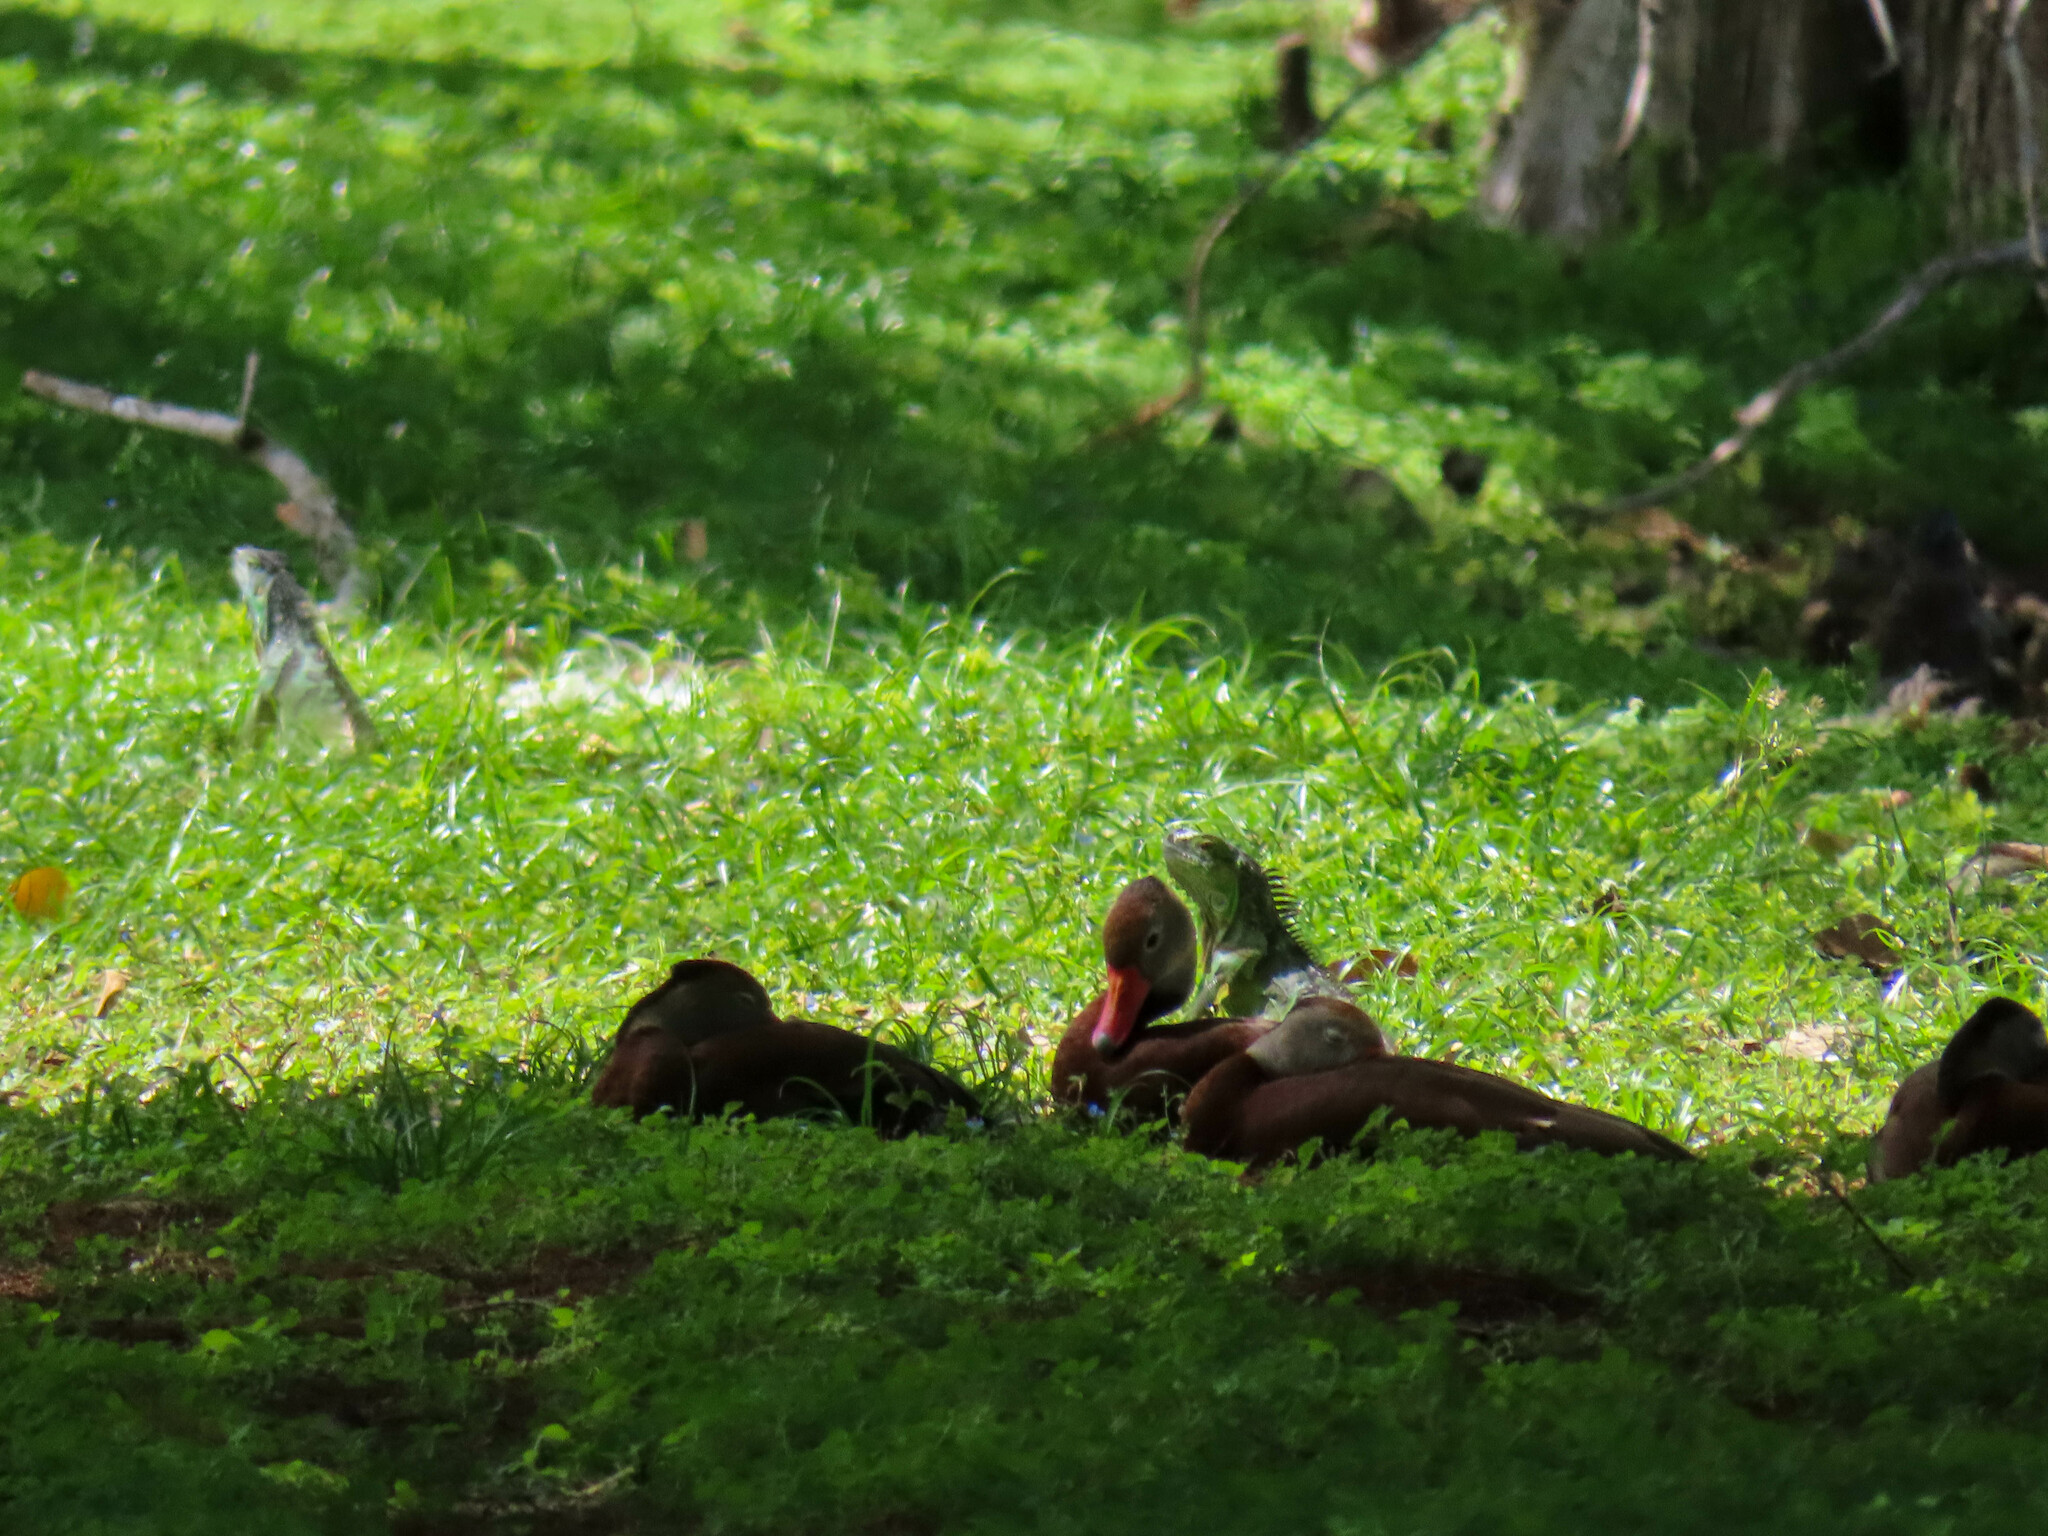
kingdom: Animalia
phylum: Chordata
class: Squamata
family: Iguanidae
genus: Iguana
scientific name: Iguana iguana
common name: Green iguana
